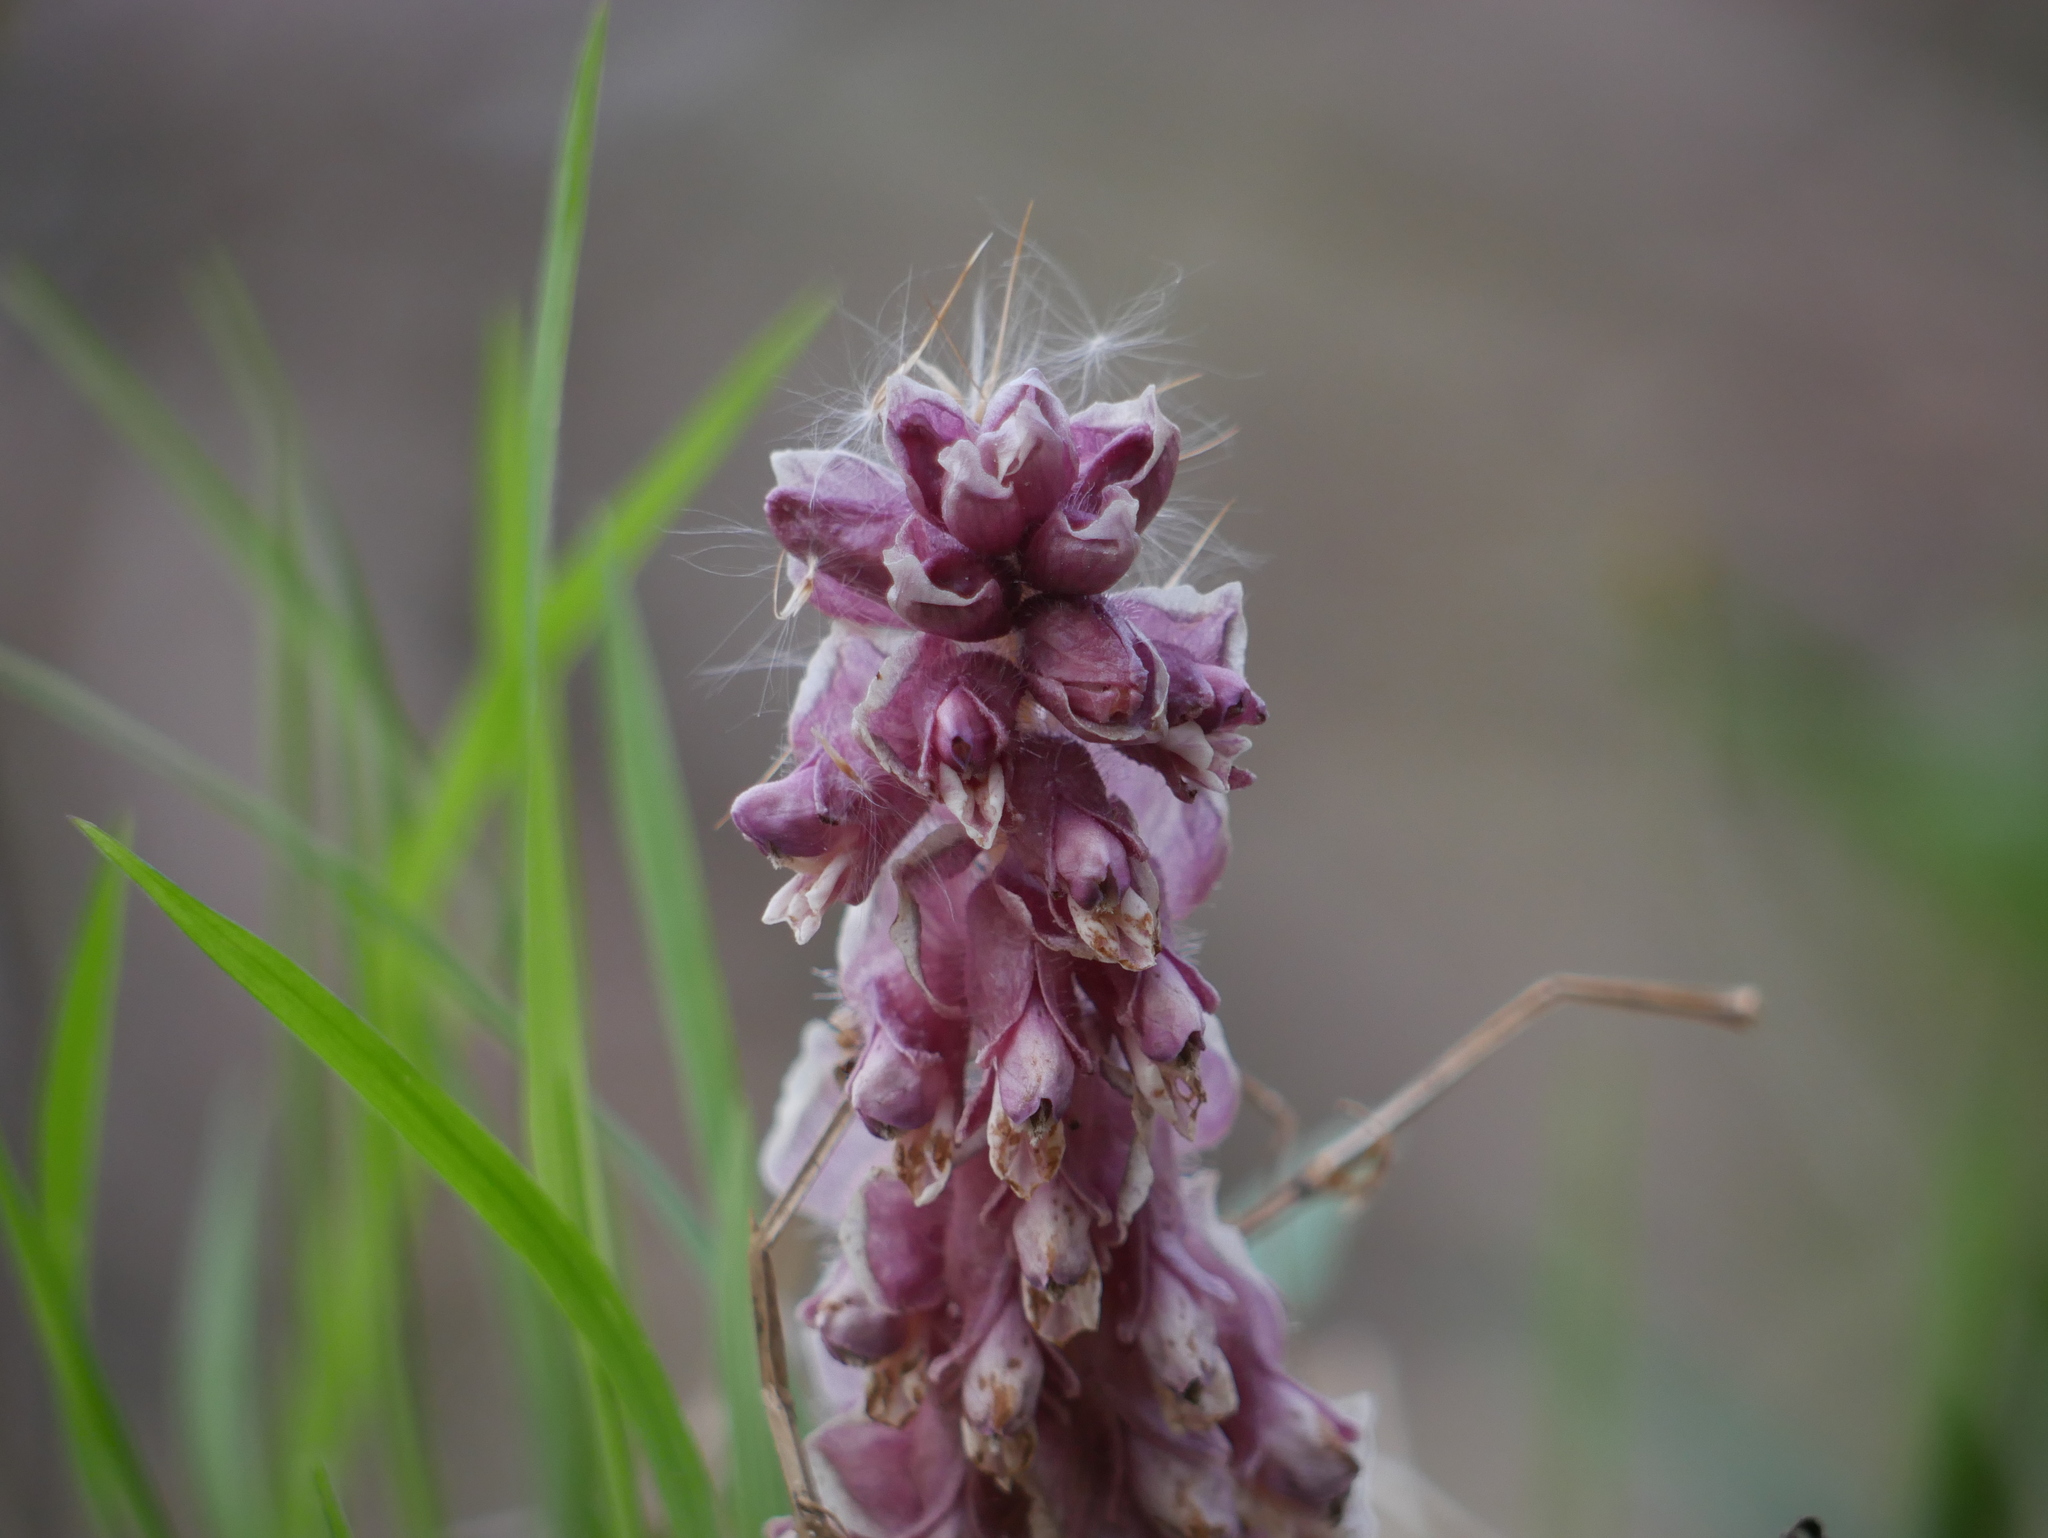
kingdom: Plantae
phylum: Tracheophyta
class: Magnoliopsida
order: Lamiales
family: Orobanchaceae
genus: Lathraea
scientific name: Lathraea squamaria
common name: Toothwort
